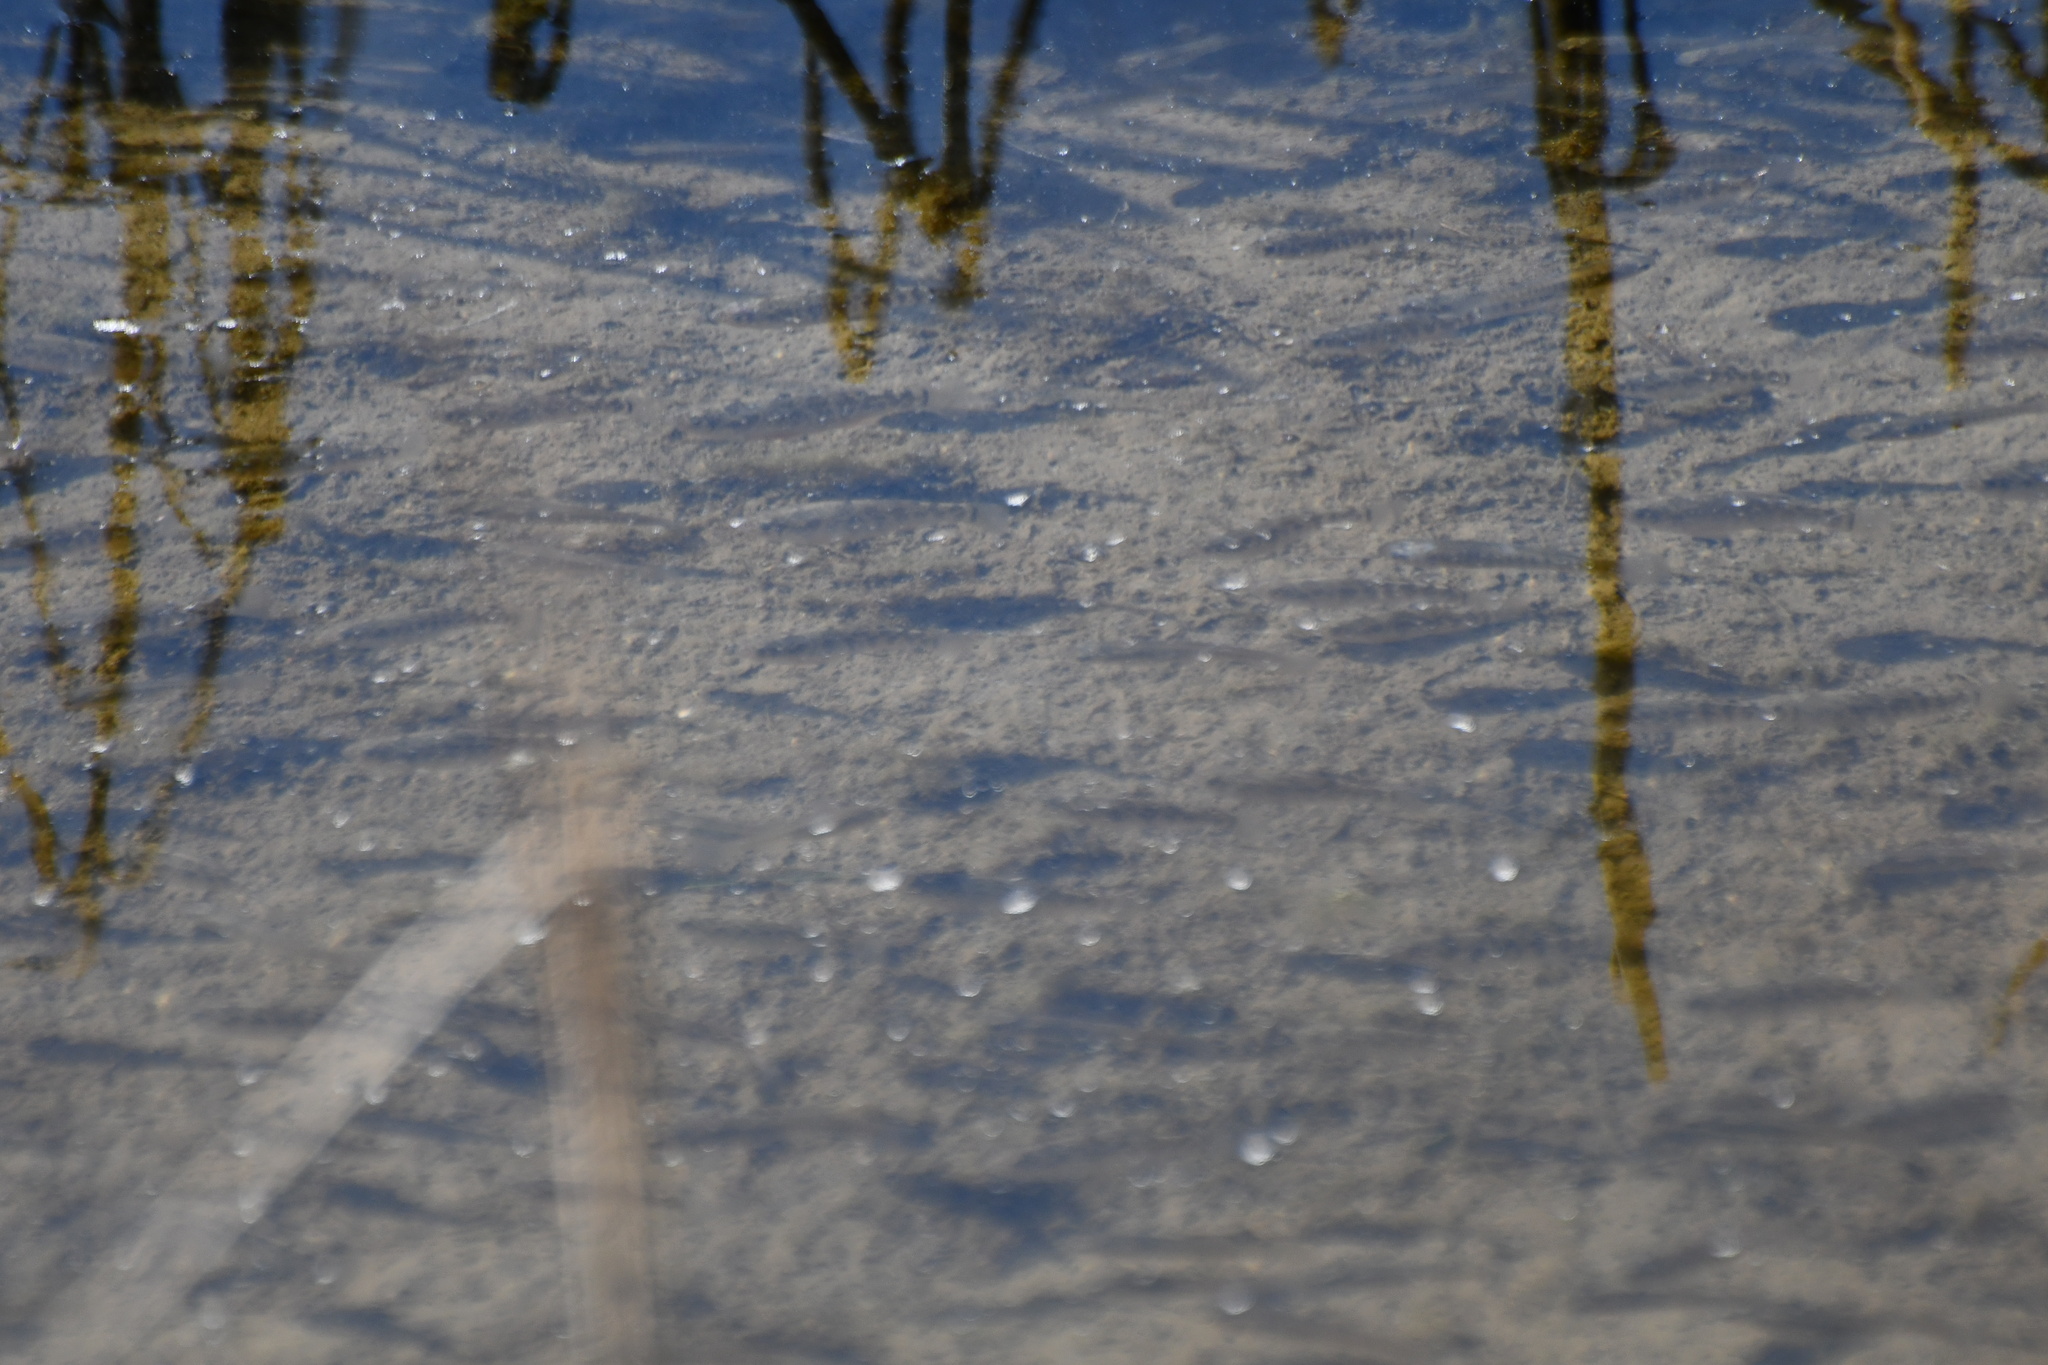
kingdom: Animalia
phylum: Chordata
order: Cyprinodontiformes
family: Cyprinodontidae
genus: Cyprinodon
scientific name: Cyprinodon variegatus
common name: Sheepshead minnow
